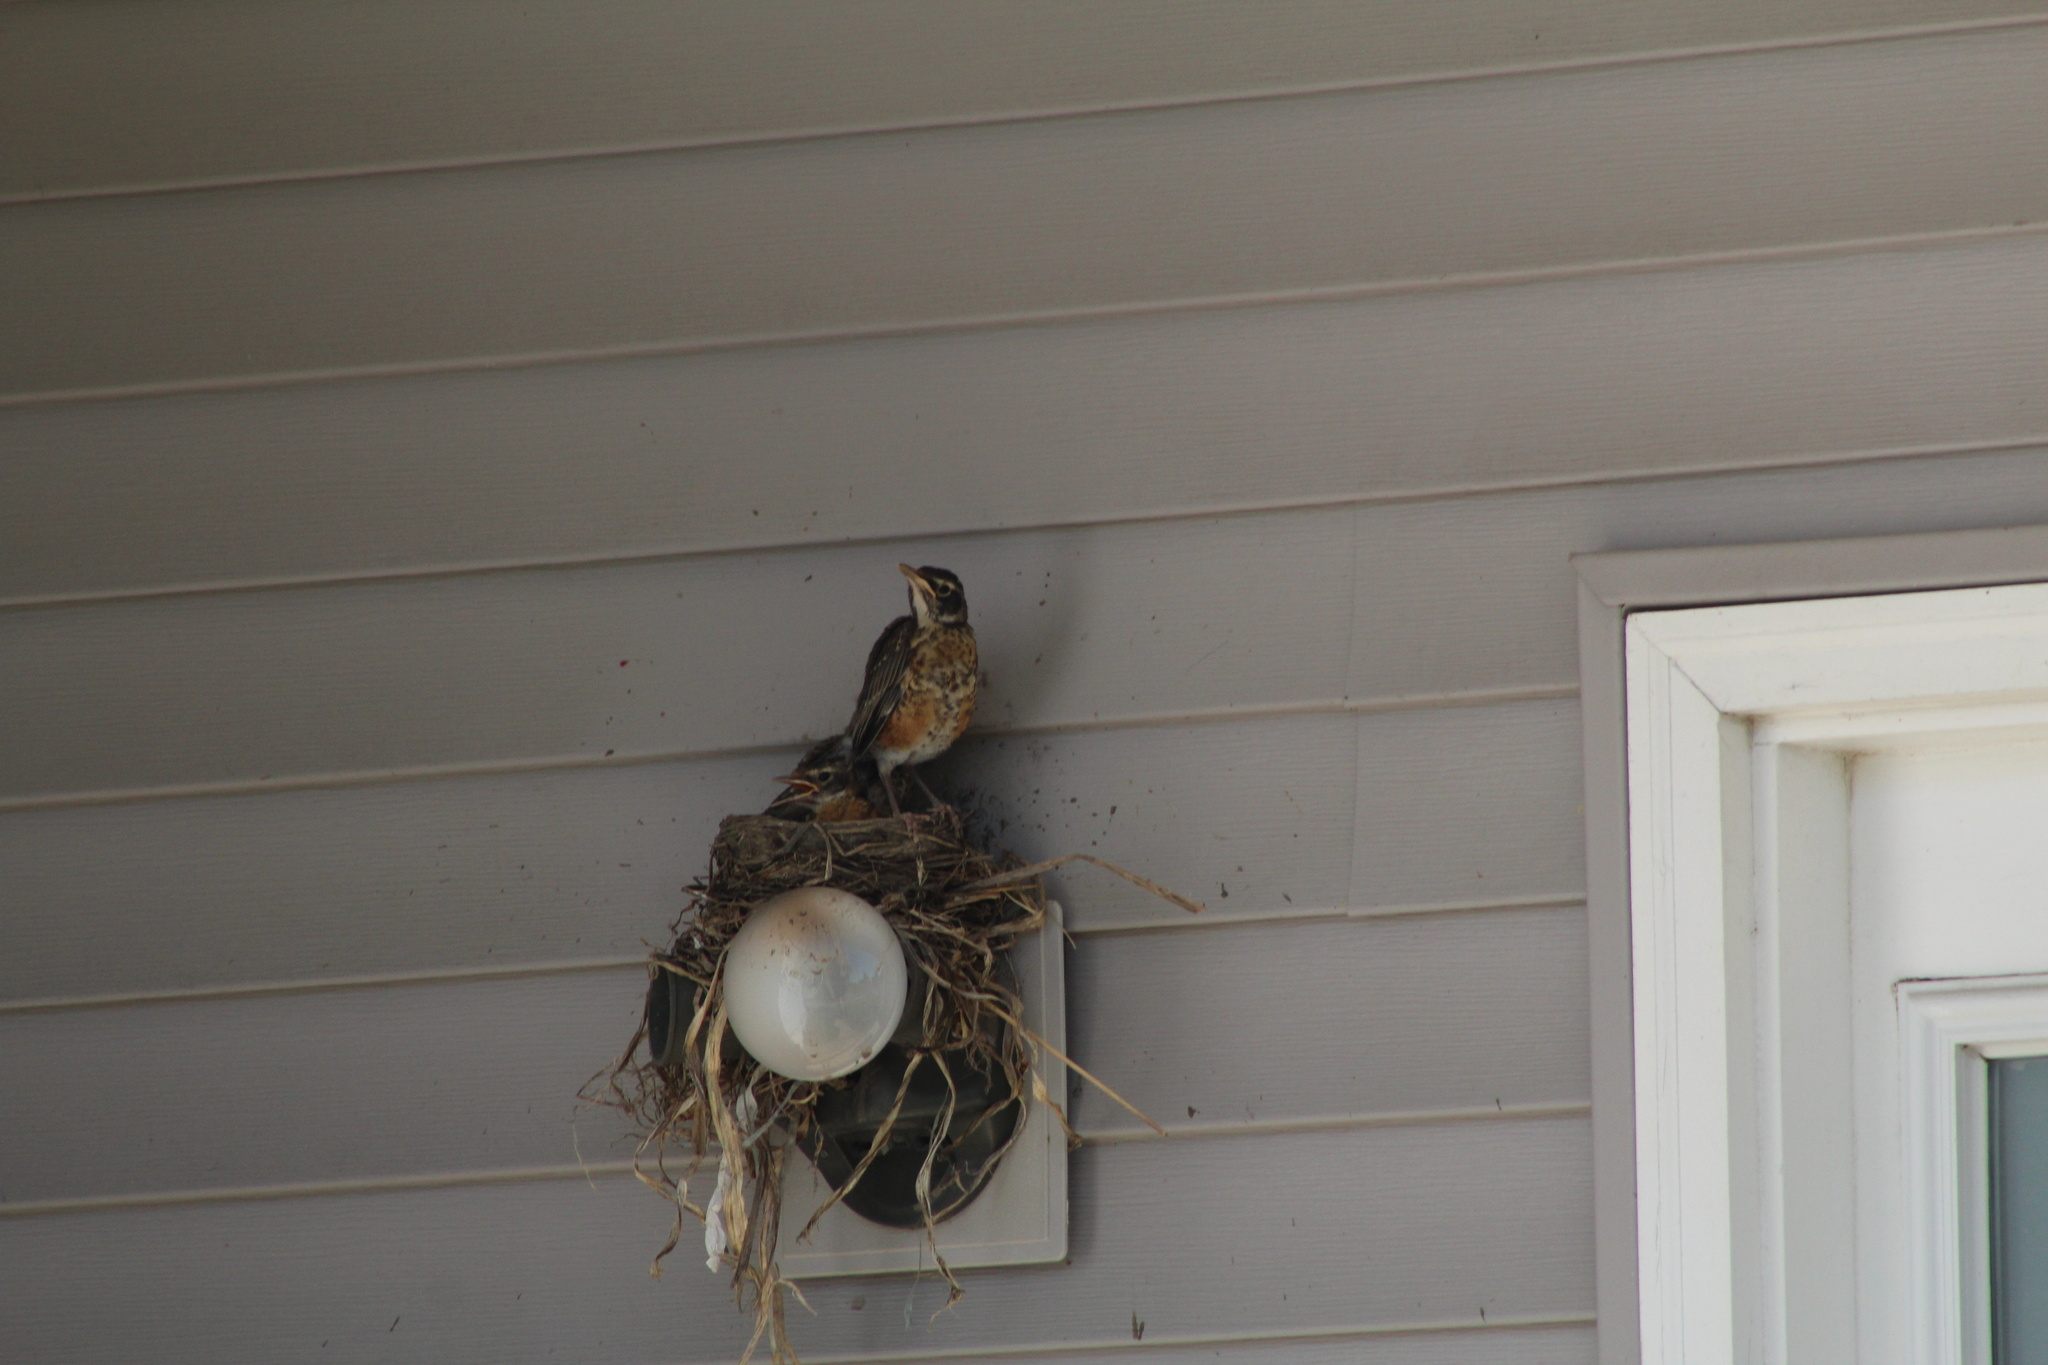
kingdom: Animalia
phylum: Chordata
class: Aves
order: Passeriformes
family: Turdidae
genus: Turdus
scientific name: Turdus migratorius
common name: American robin
